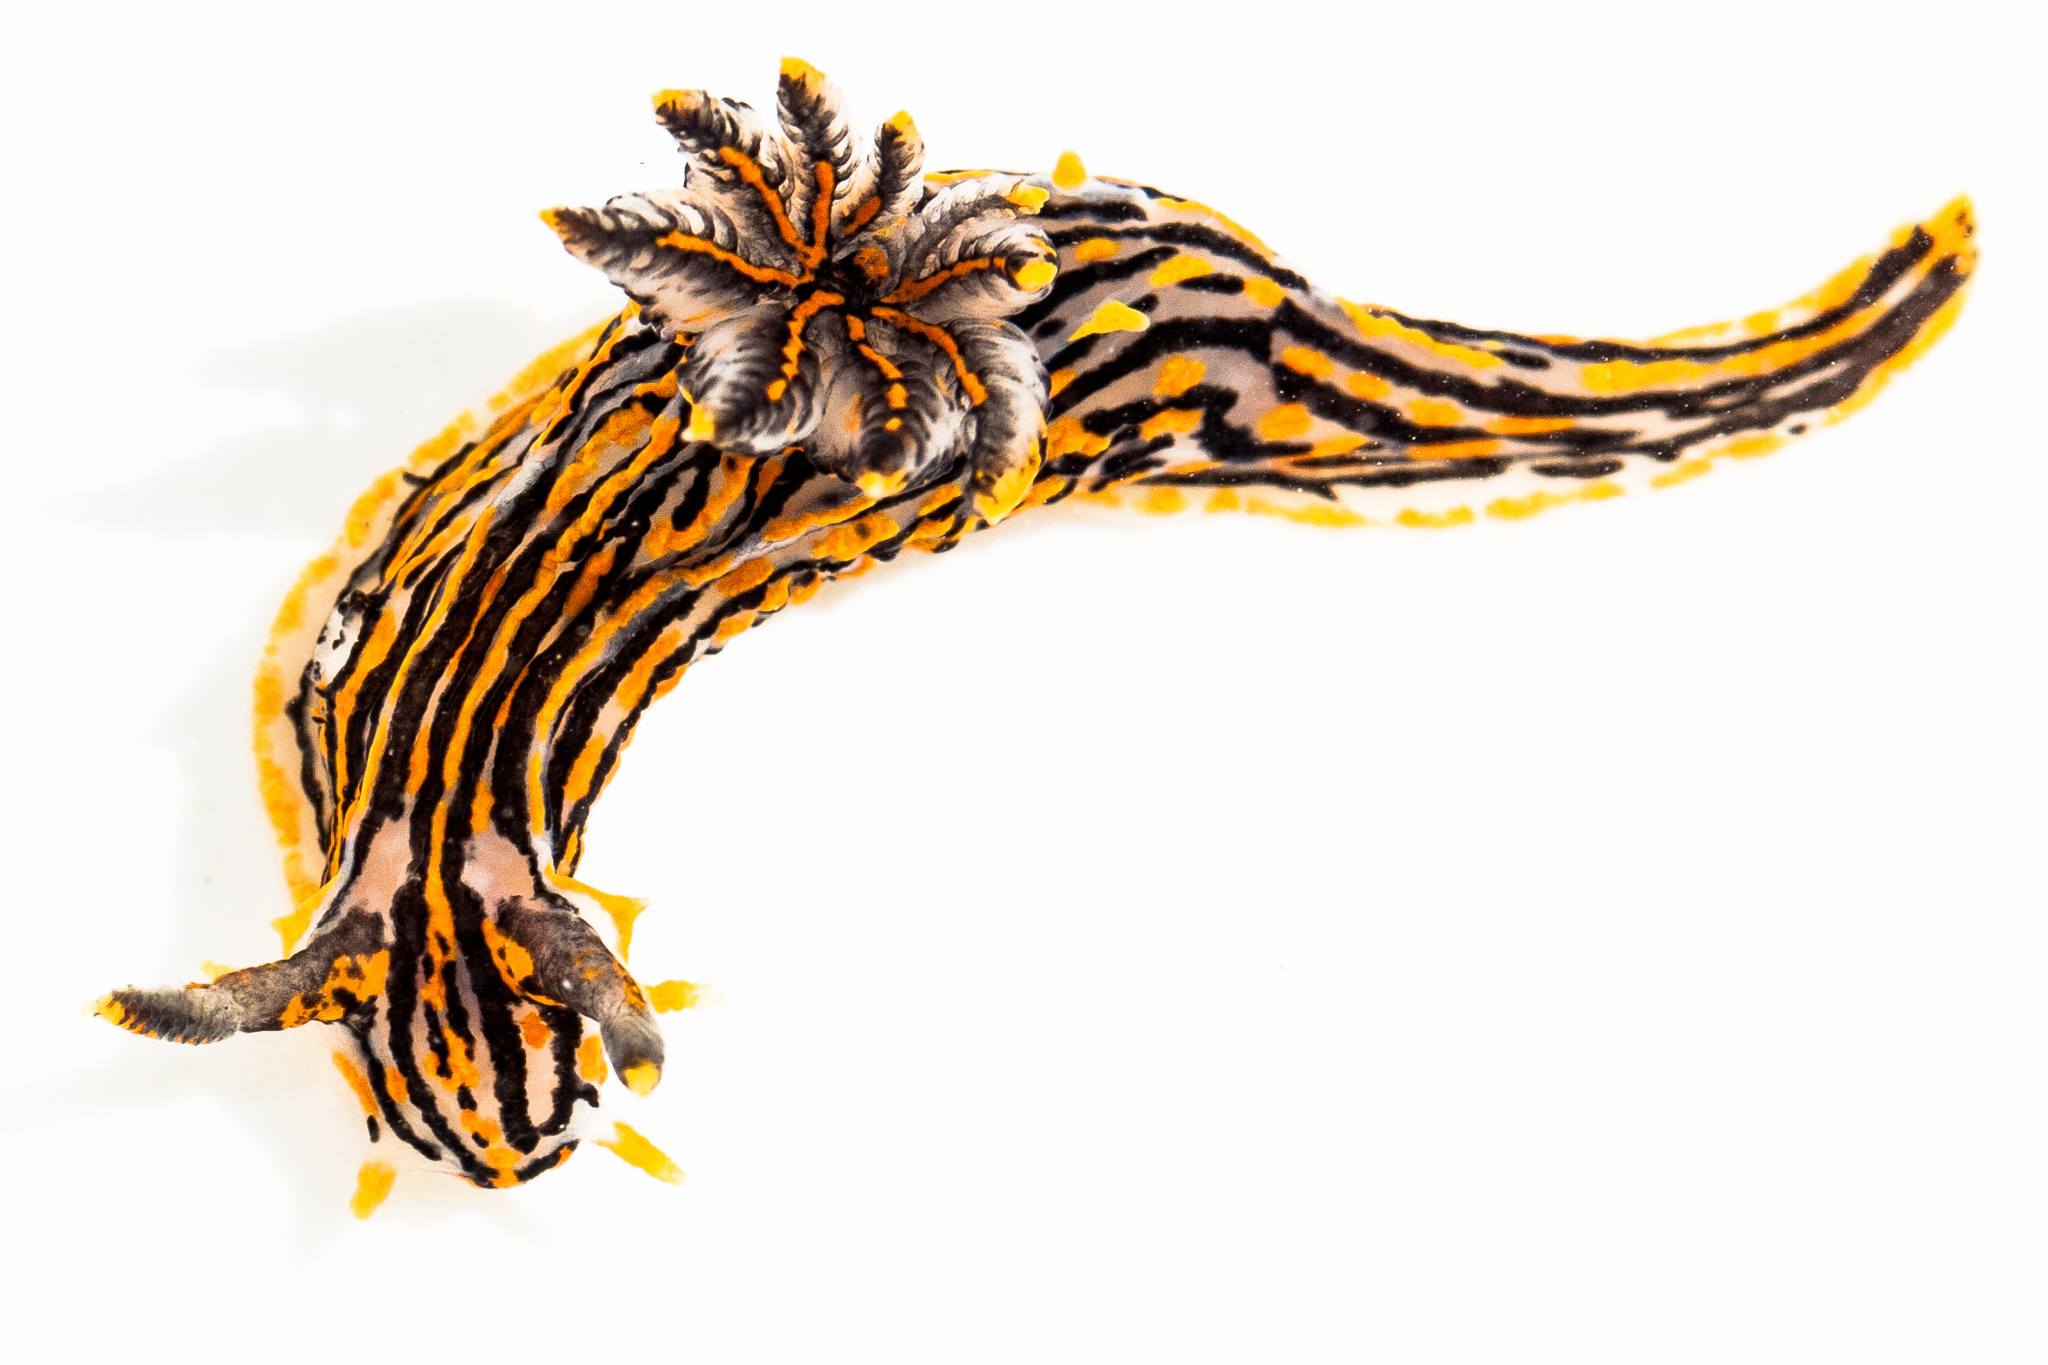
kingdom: Animalia
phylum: Mollusca
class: Gastropoda
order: Nudibranchia
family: Polyceridae
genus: Polycera
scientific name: Polycera atra
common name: Orange-spike polycera
